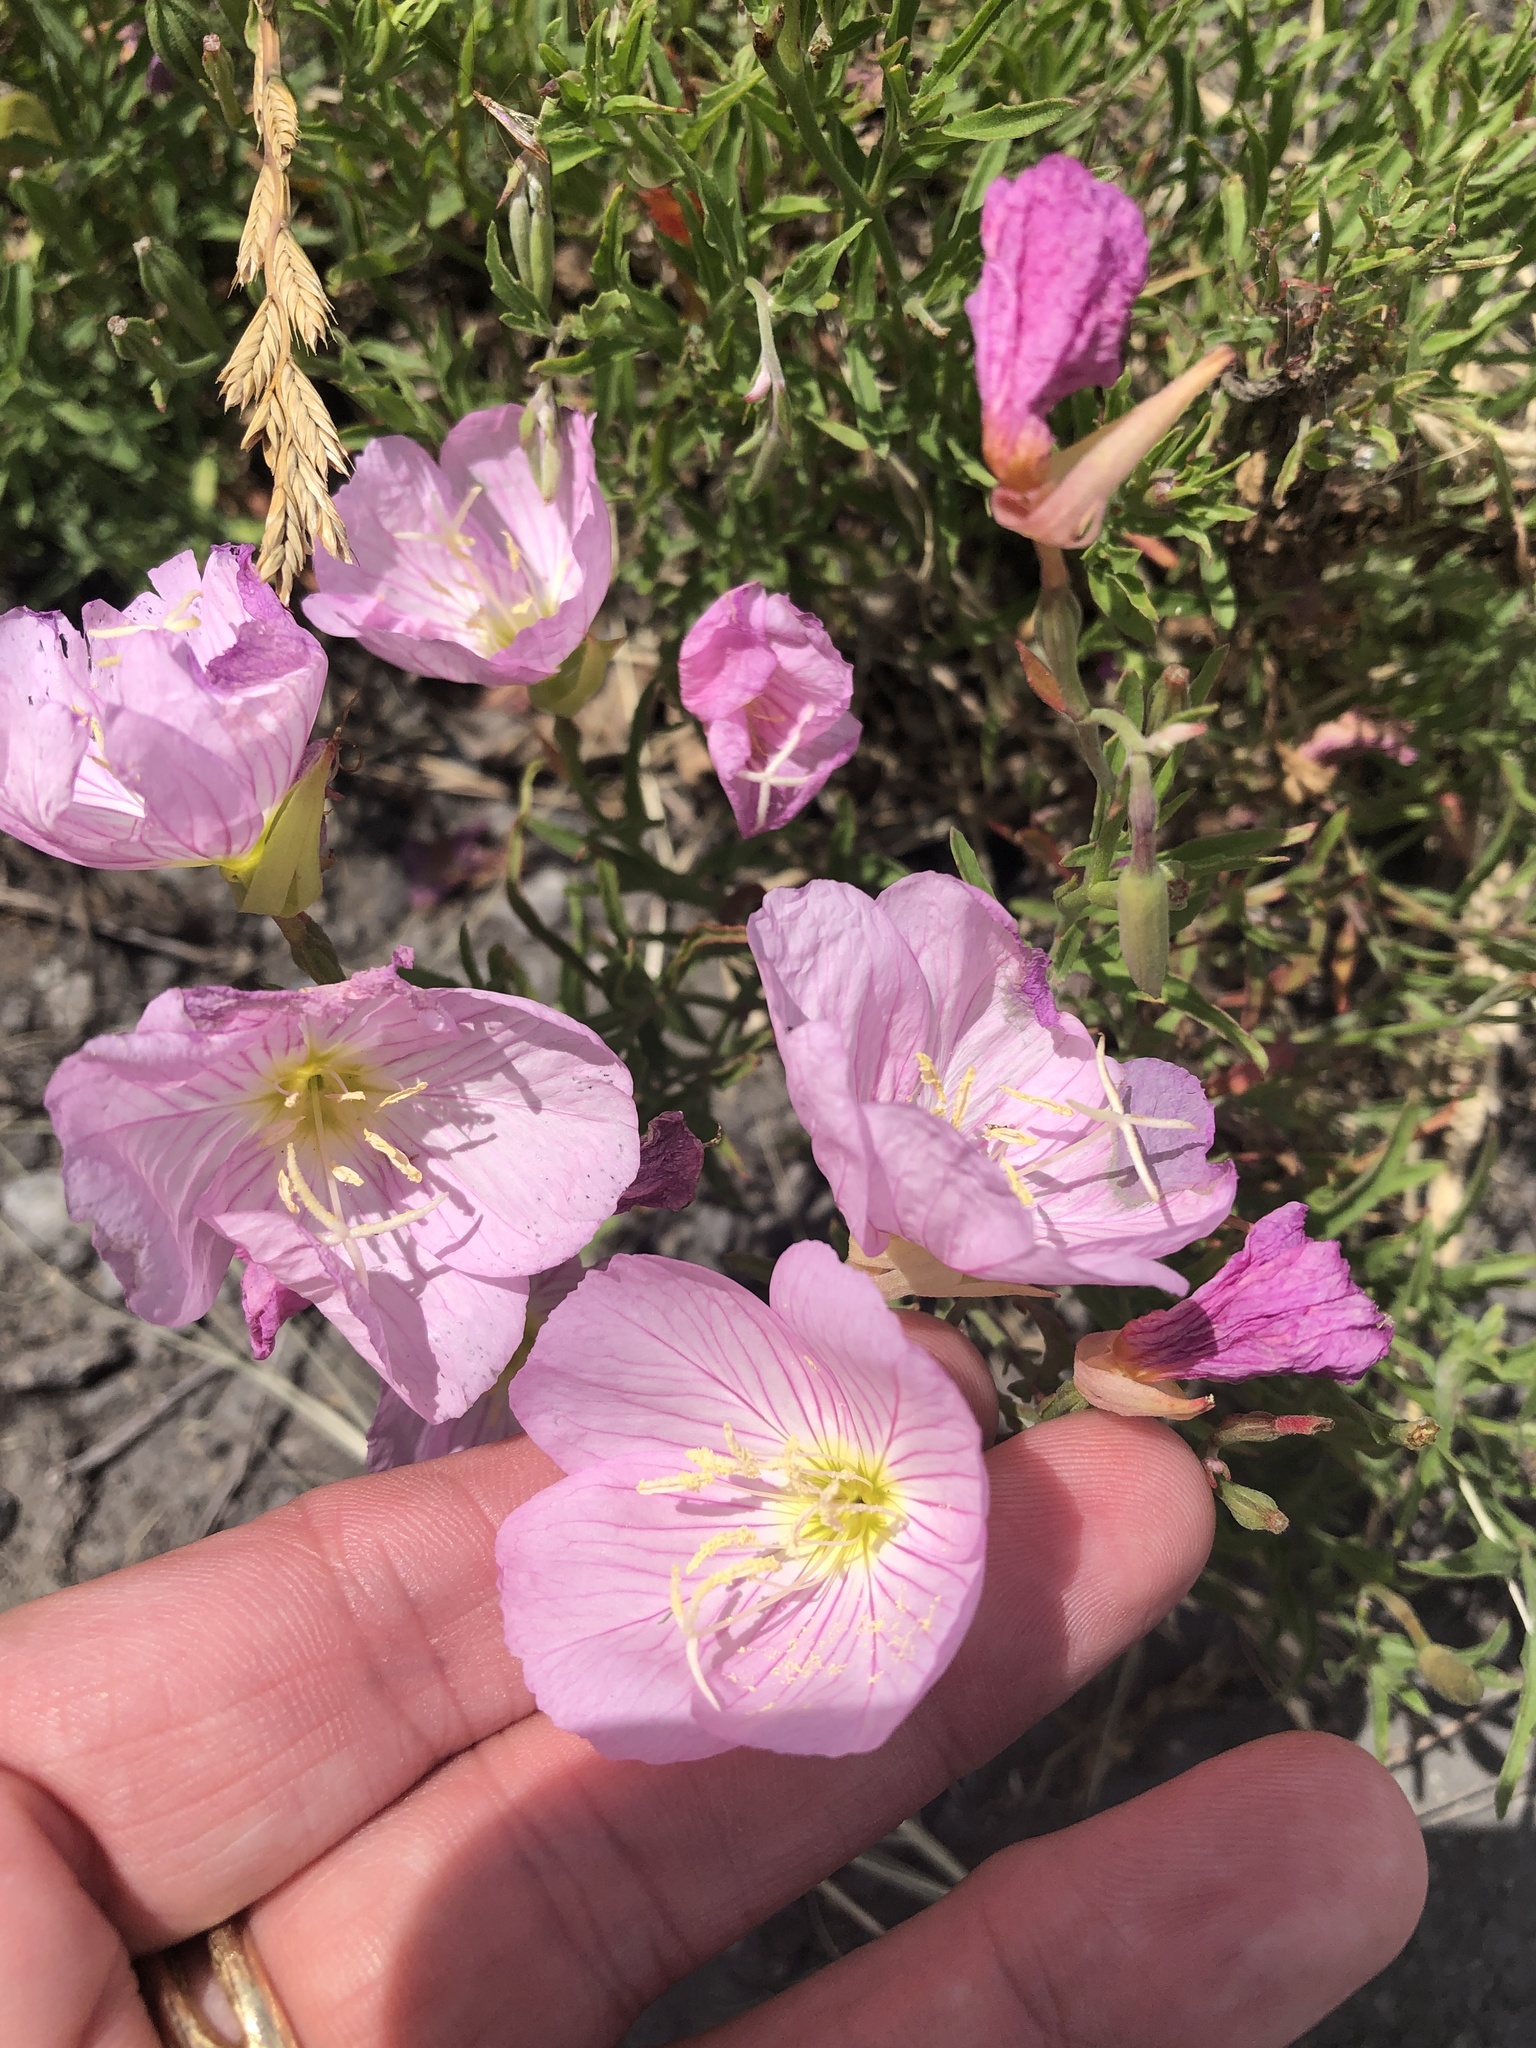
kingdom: Plantae
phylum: Tracheophyta
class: Magnoliopsida
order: Myrtales
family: Onagraceae
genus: Oenothera
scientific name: Oenothera speciosa
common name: White evening-primrose
